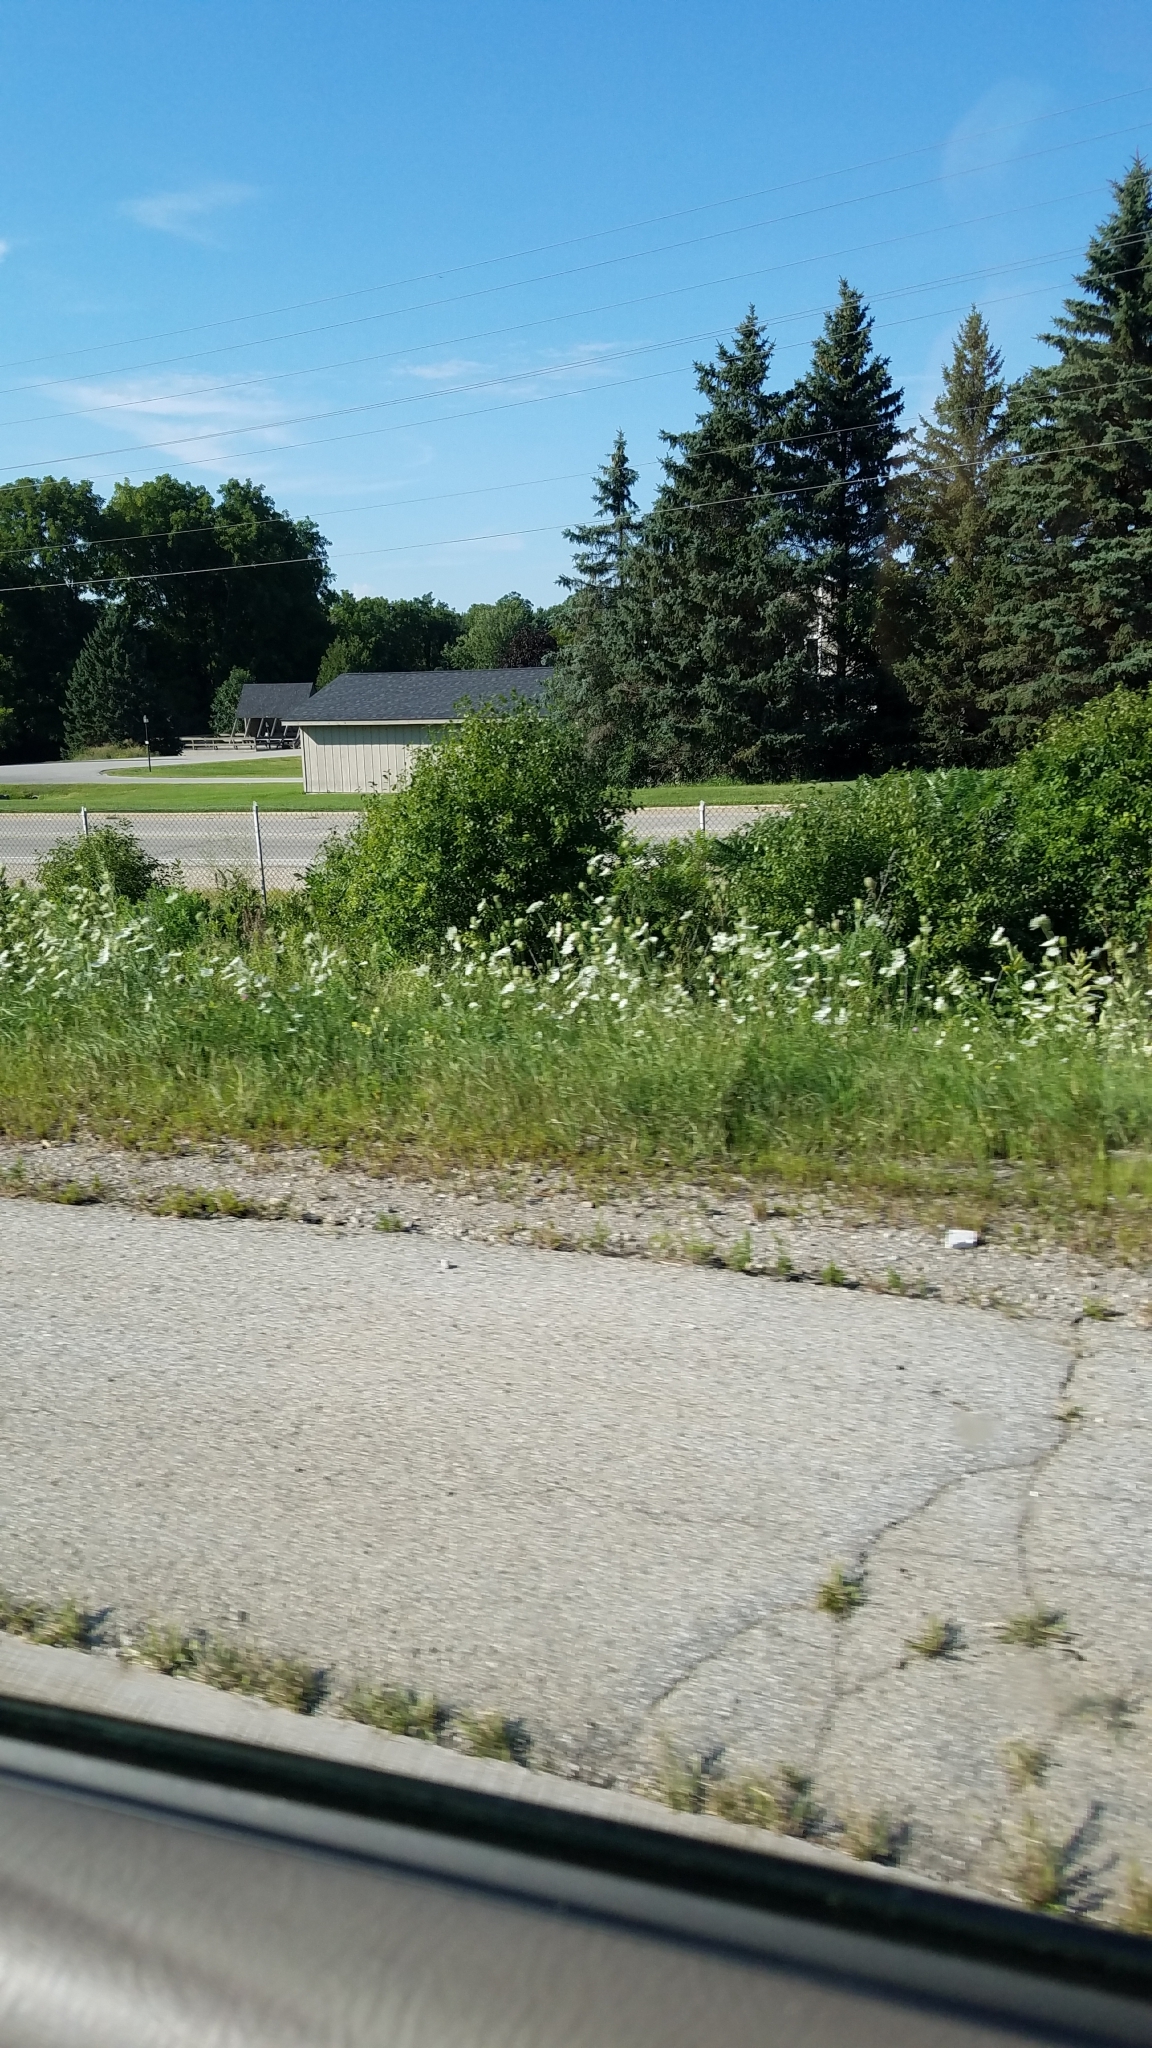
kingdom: Plantae
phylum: Tracheophyta
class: Magnoliopsida
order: Apiales
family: Apiaceae
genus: Daucus
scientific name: Daucus carota
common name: Wild carrot
